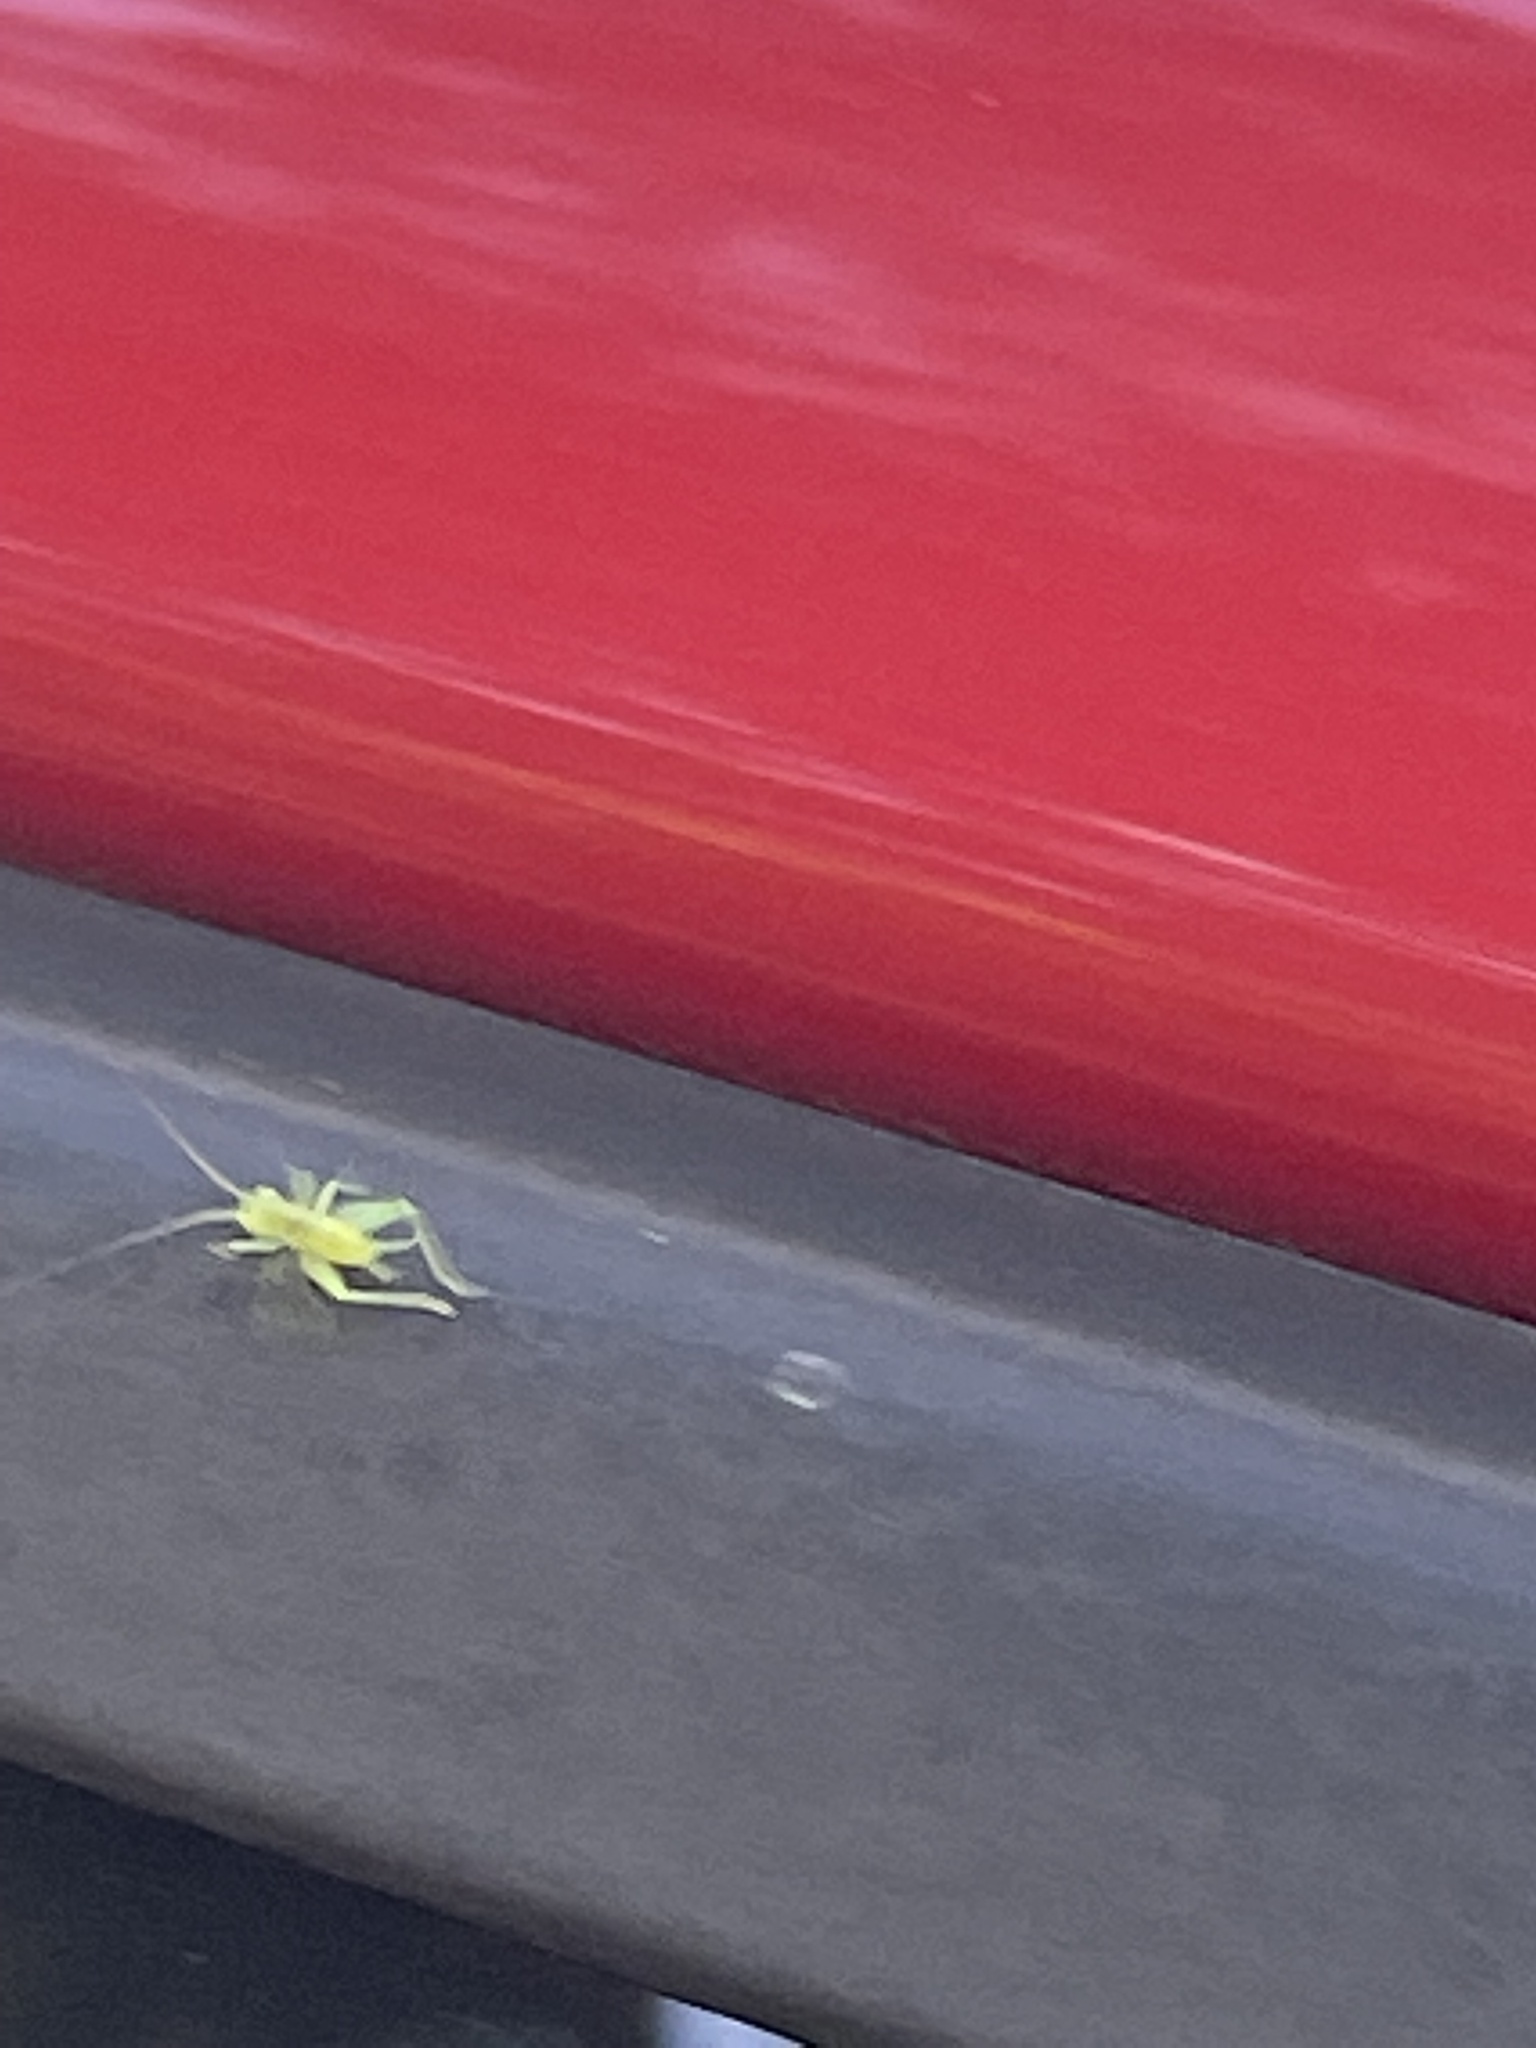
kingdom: Animalia
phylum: Arthropoda
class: Insecta
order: Orthoptera
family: Trigonidiidae
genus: Cyrtoxipha
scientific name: Cyrtoxipha columbiana
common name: Columbian trig
